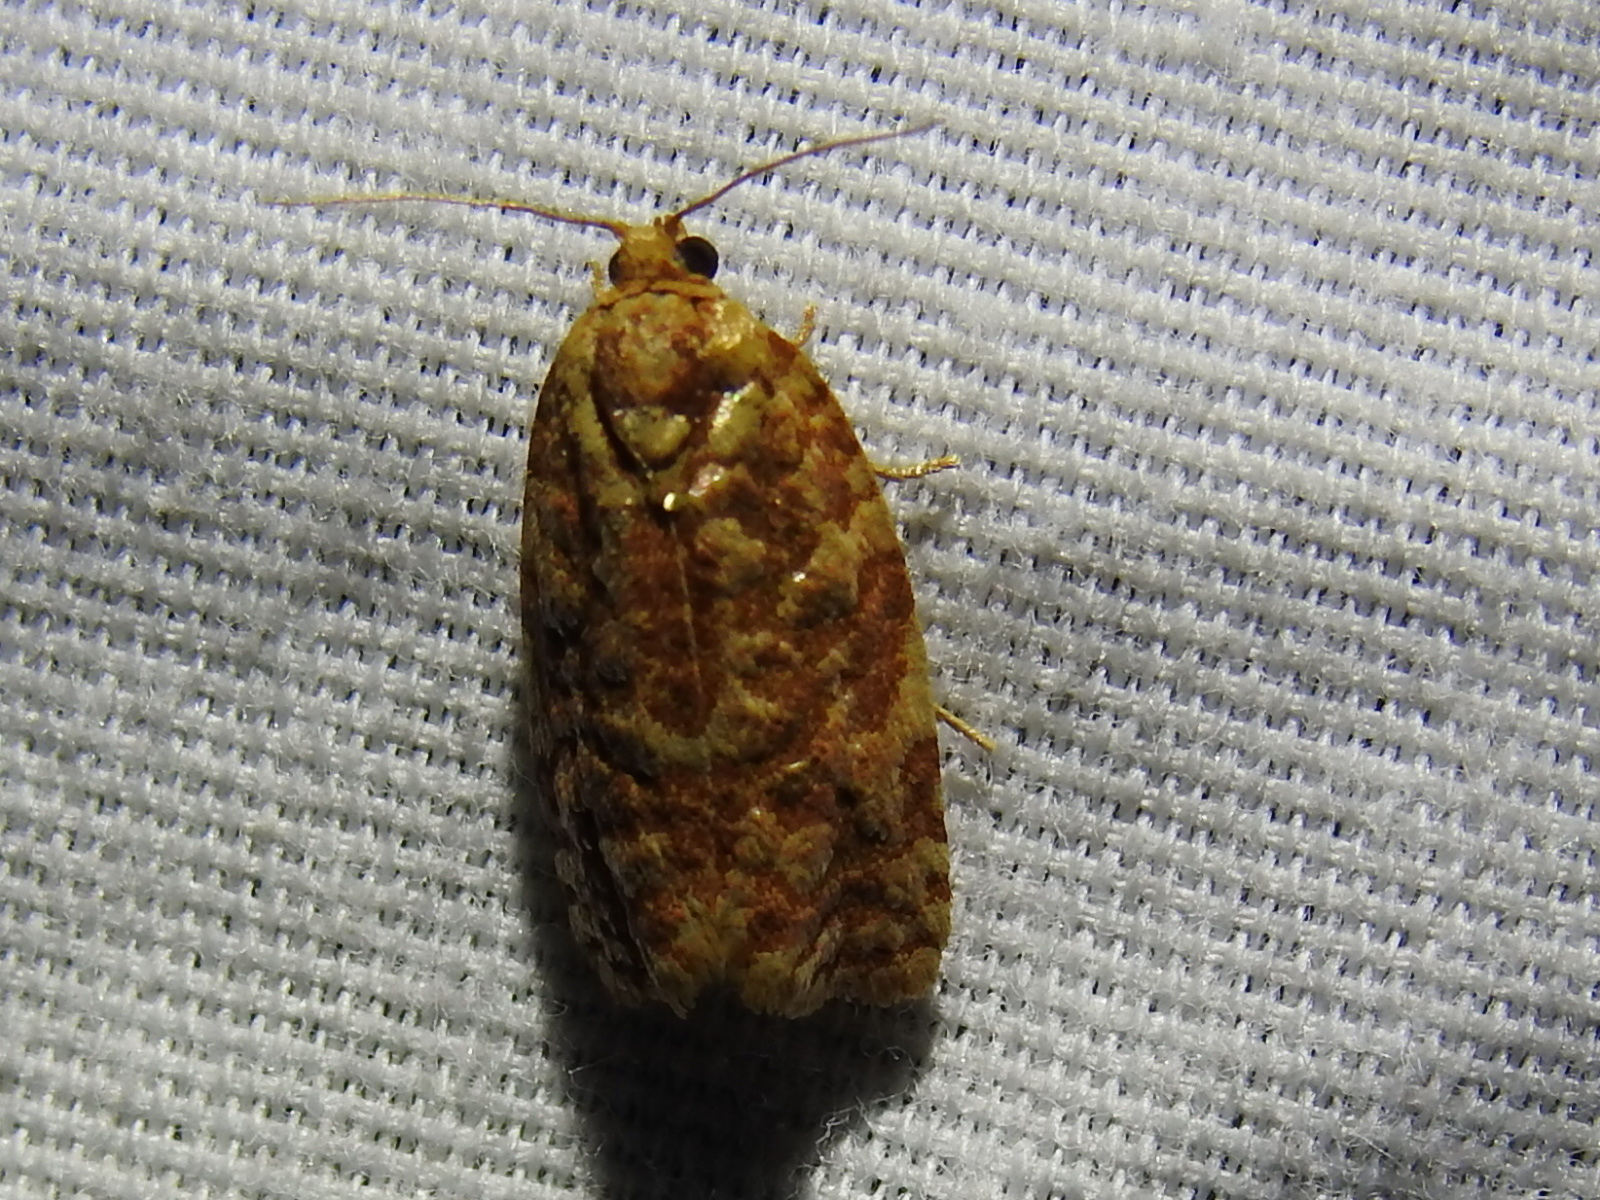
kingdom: Animalia
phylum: Arthropoda
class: Insecta
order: Lepidoptera
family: Tortricidae
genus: Choristoneura
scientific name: Choristoneura houstonana
